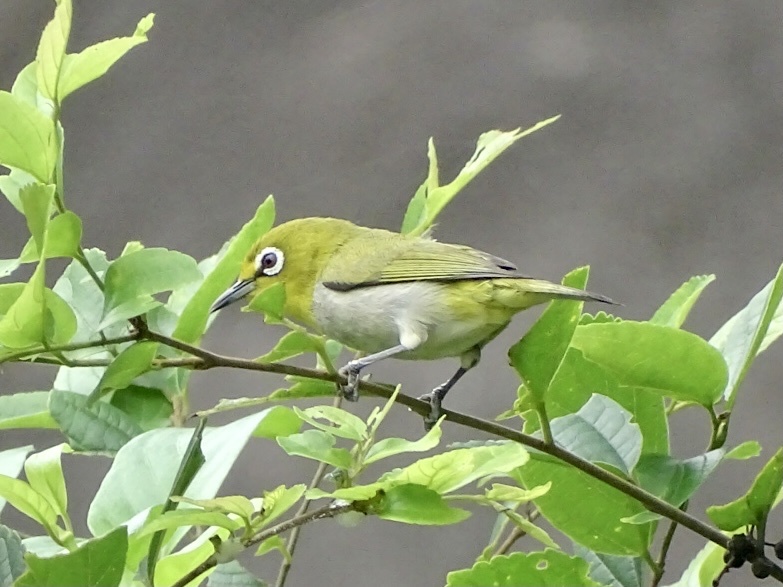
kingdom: Animalia
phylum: Chordata
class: Aves
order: Passeriformes
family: Zosteropidae
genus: Zosterops
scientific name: Zosterops simplex
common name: Swinhoe's white-eye
